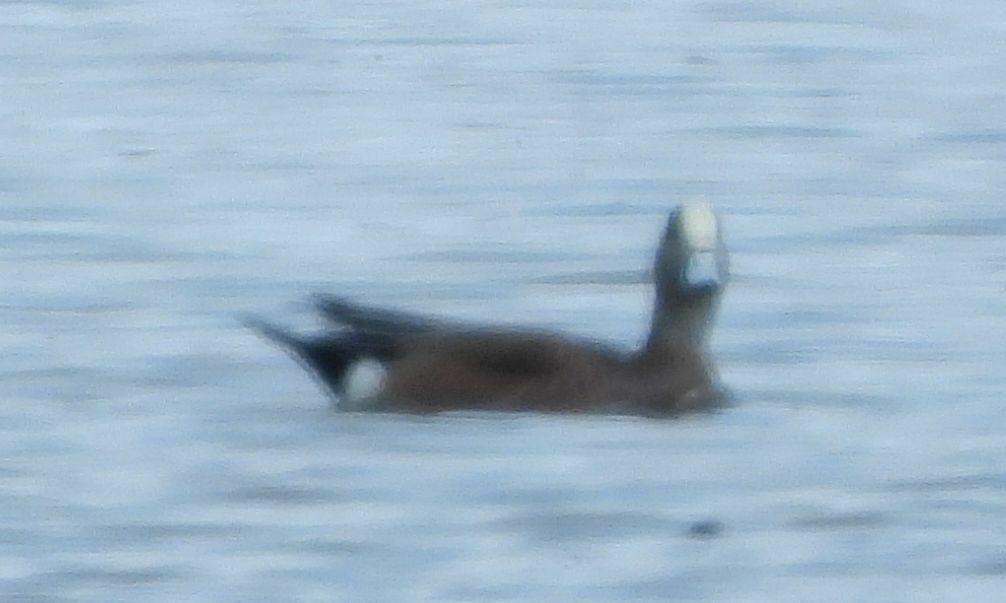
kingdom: Animalia
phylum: Chordata
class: Aves
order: Anseriformes
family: Anatidae
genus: Mareca
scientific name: Mareca americana
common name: American wigeon
